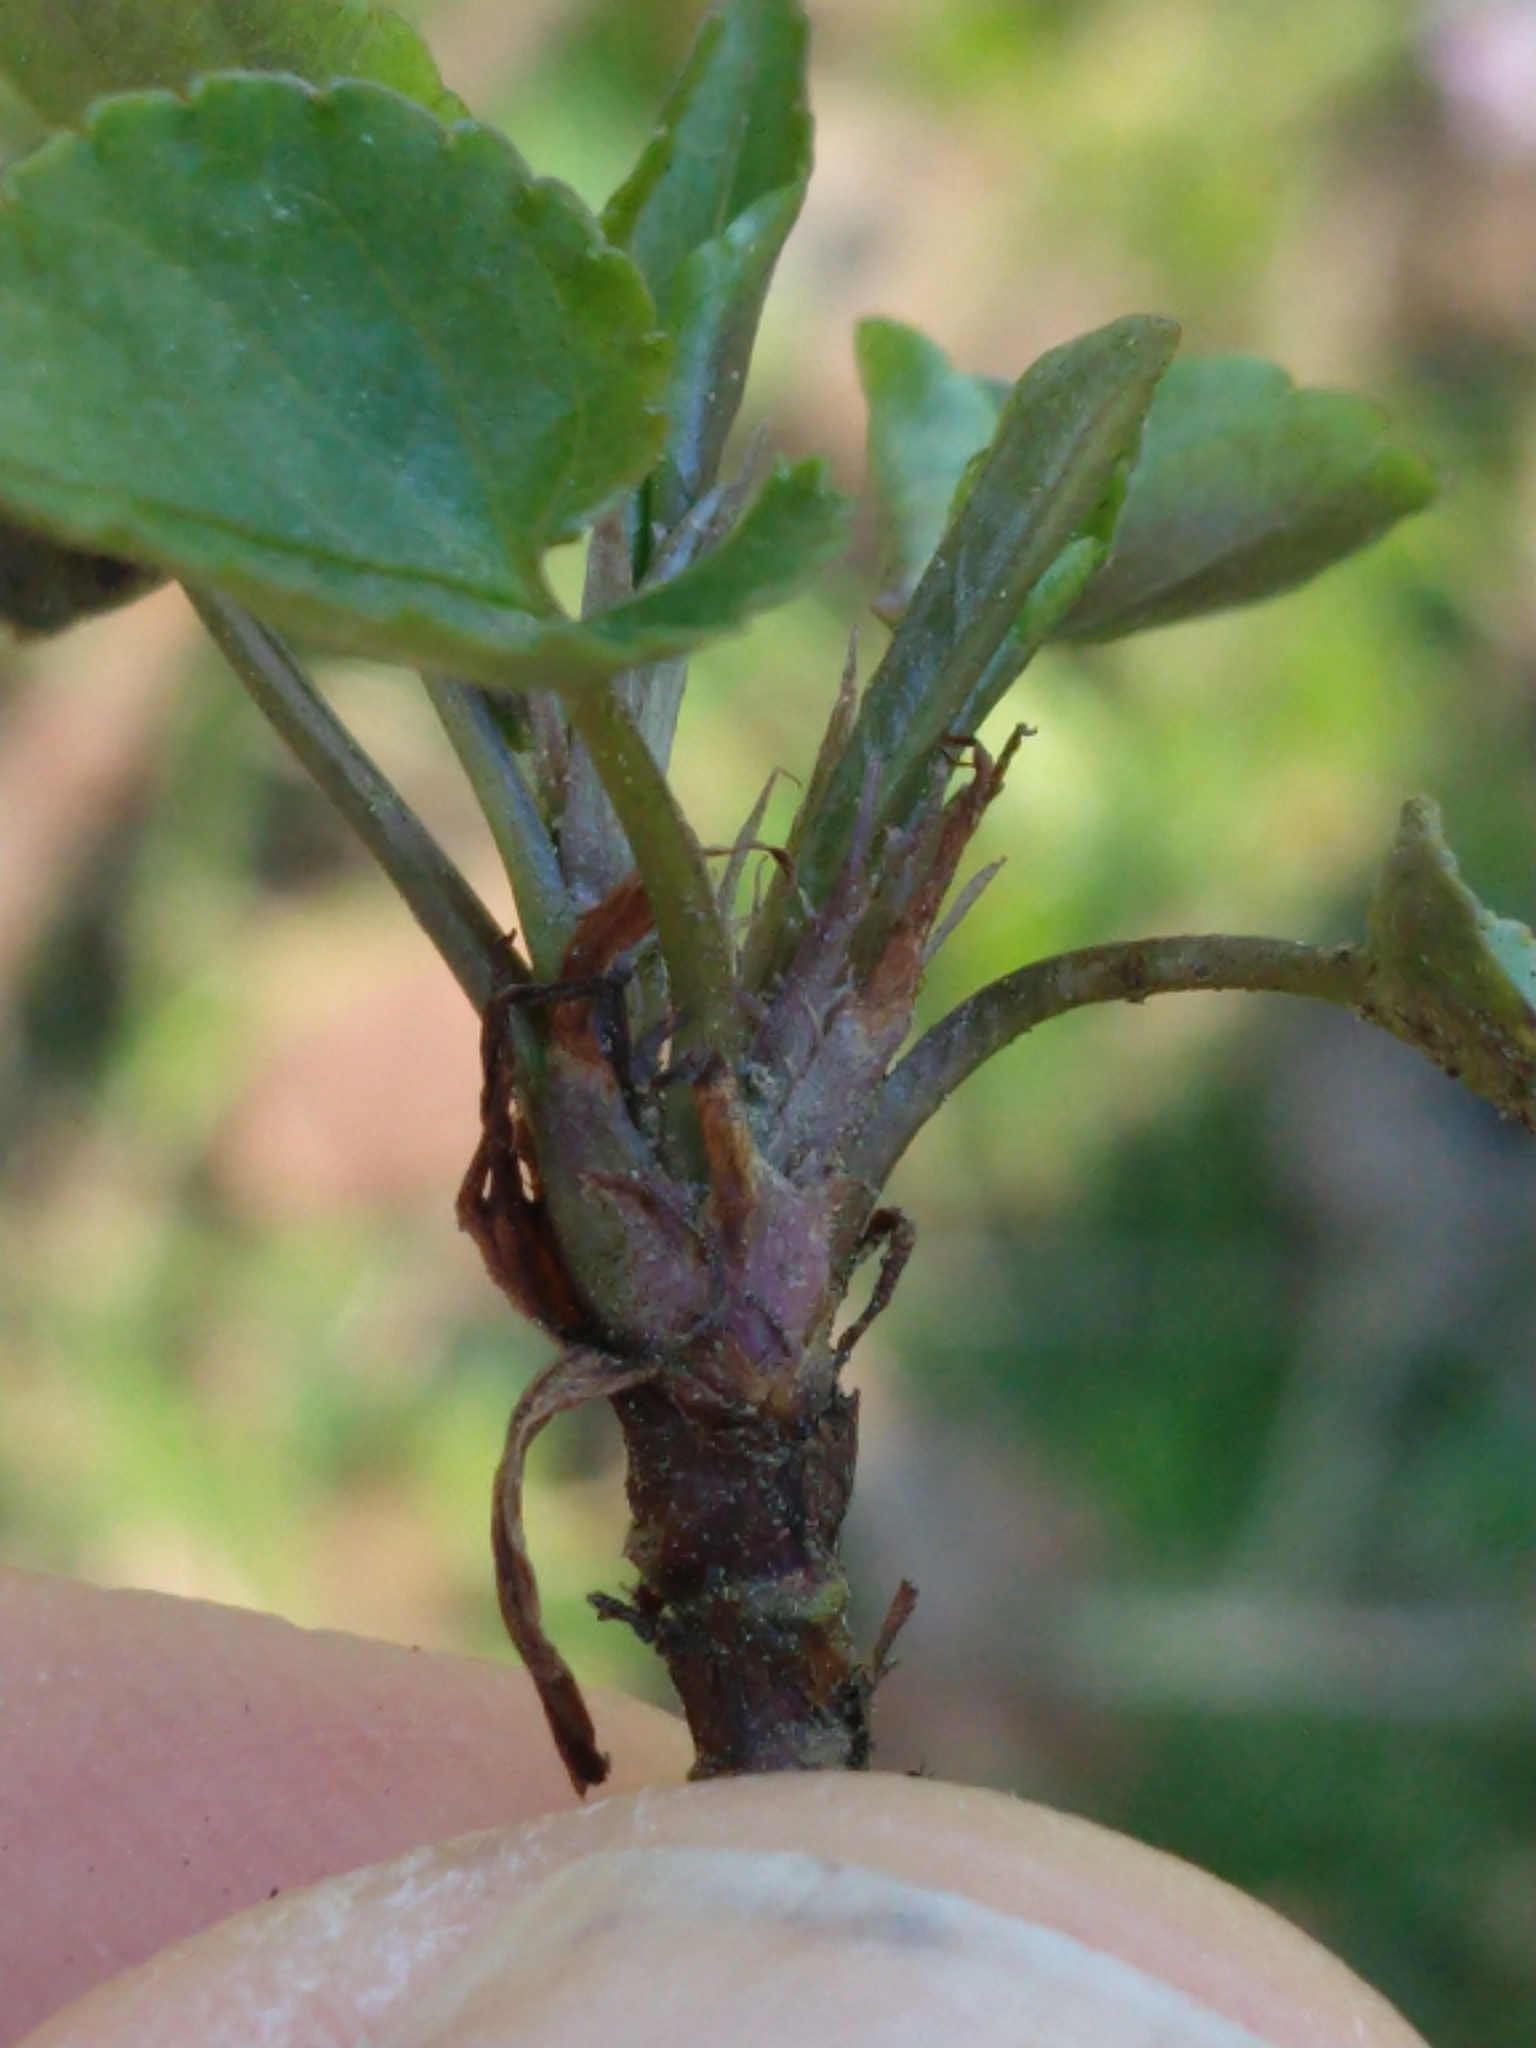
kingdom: Plantae
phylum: Tracheophyta
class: Magnoliopsida
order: Malpighiales
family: Violaceae
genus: Viola
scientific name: Viola reichenbachiana
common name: Early dog-violet
